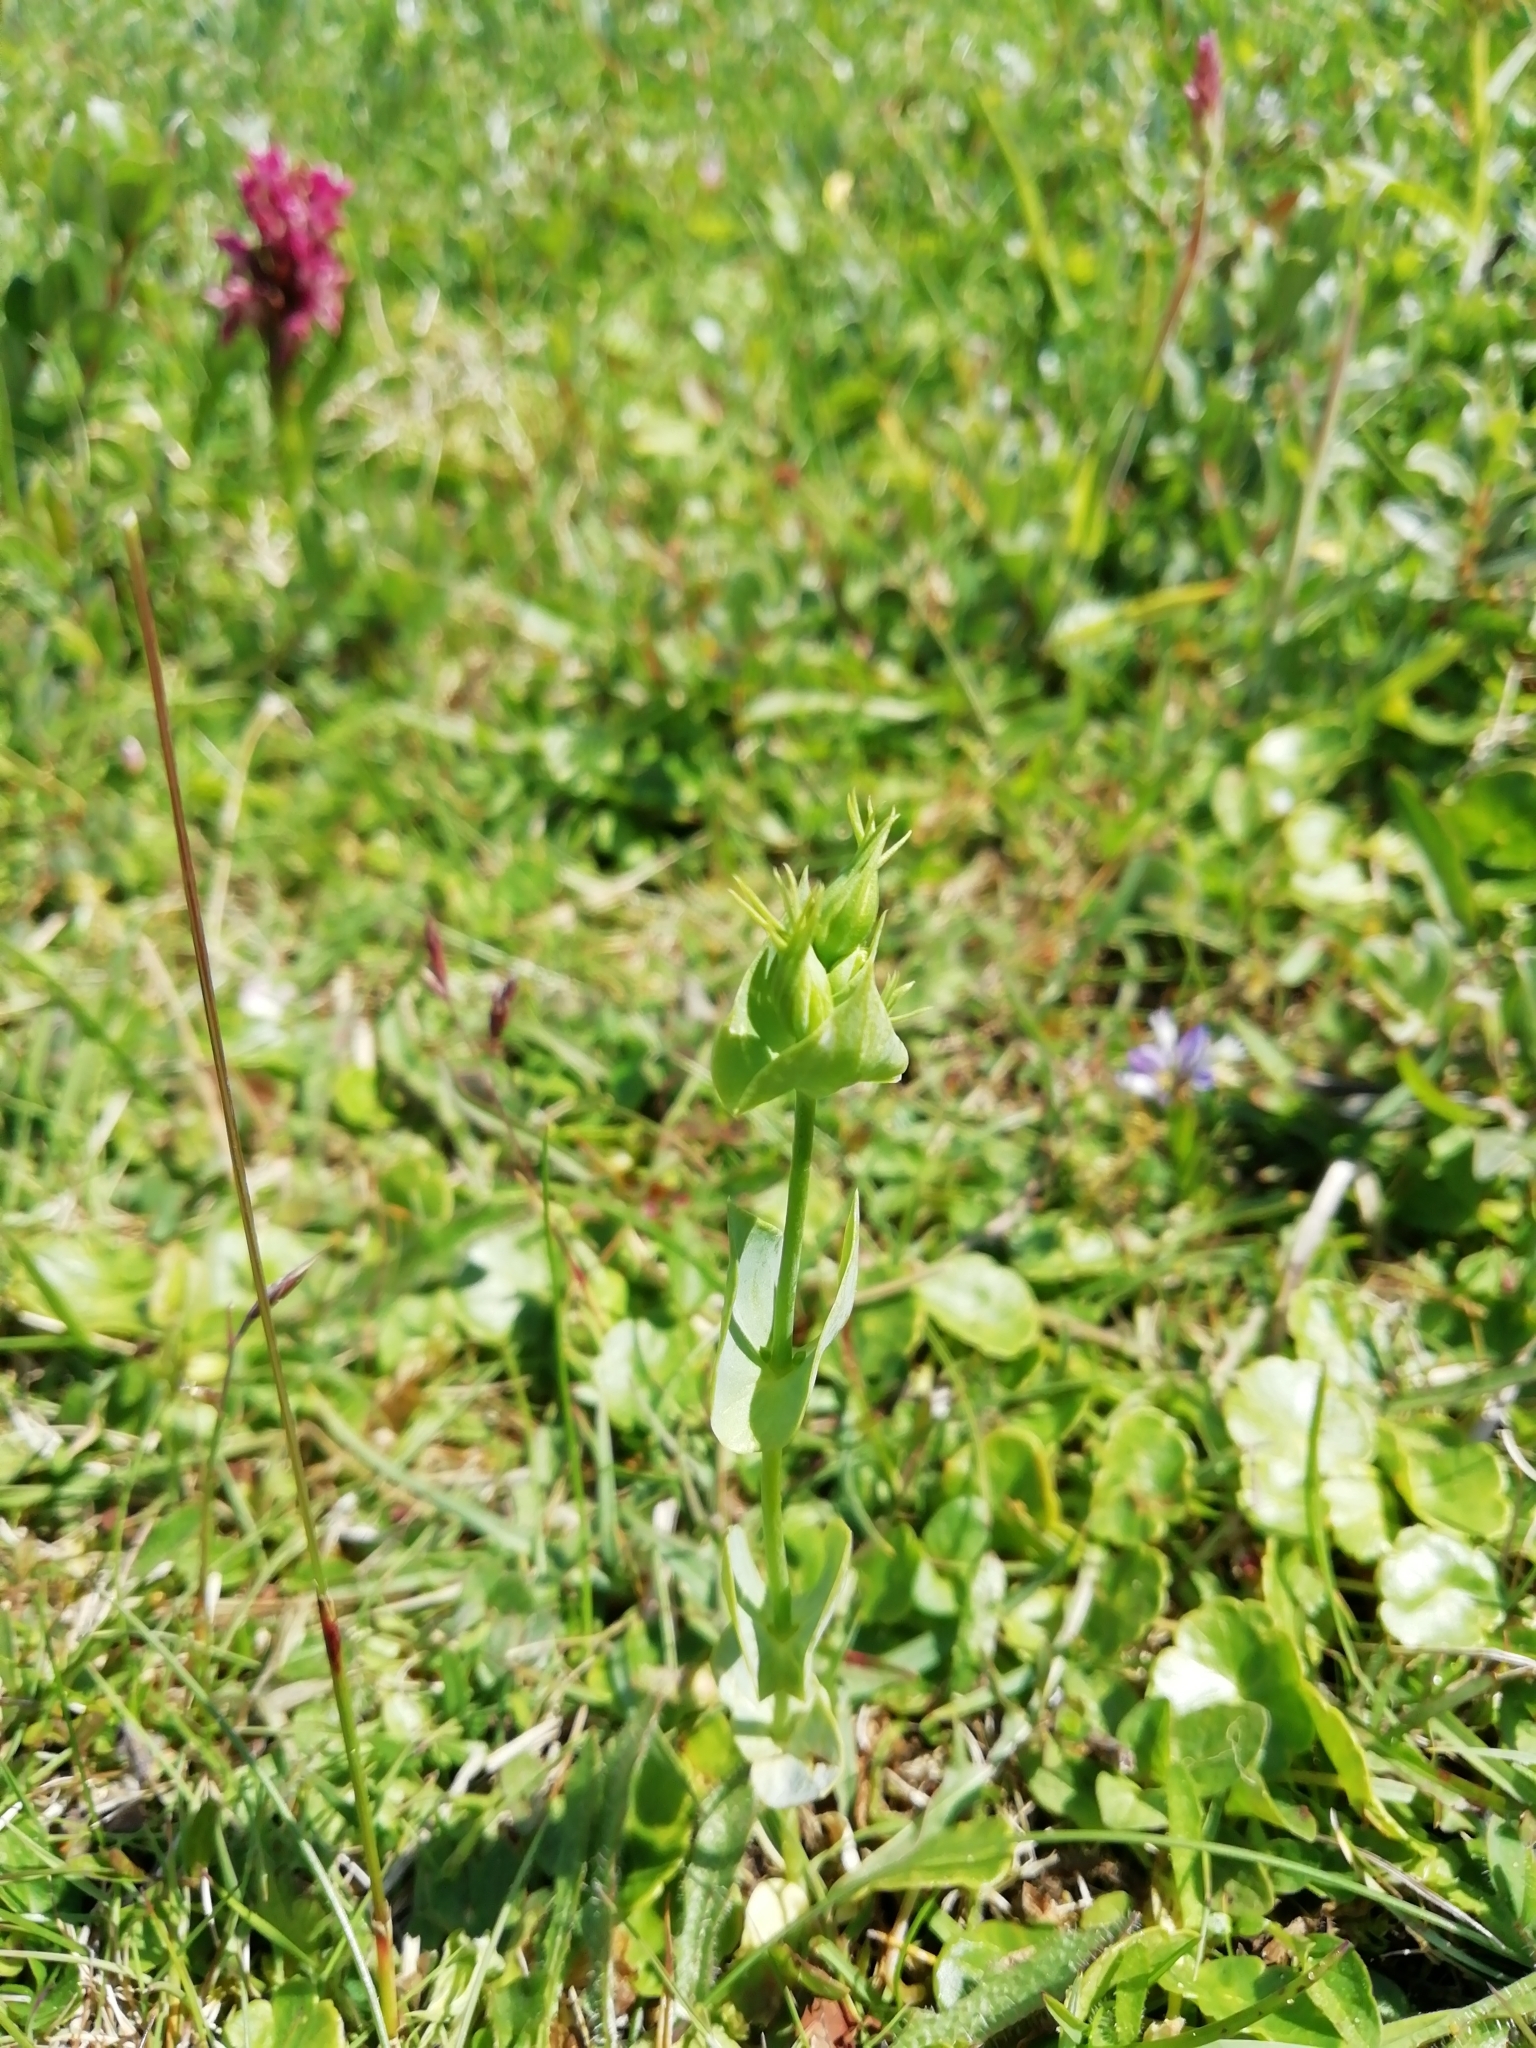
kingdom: Plantae
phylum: Tracheophyta
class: Magnoliopsida
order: Gentianales
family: Gentianaceae
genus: Blackstonia
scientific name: Blackstonia perfoliata
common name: Yellow-wort
